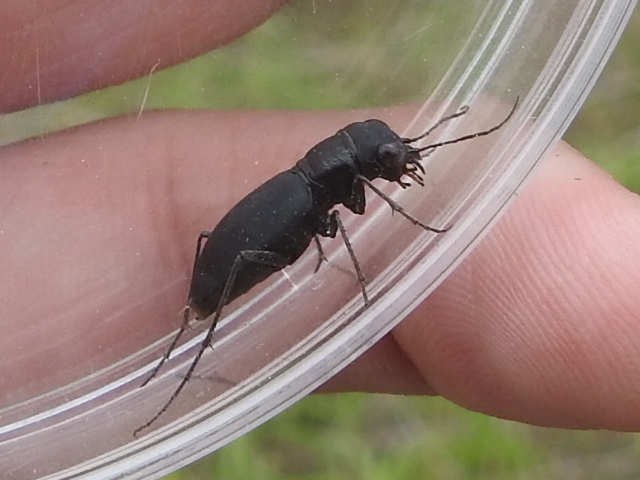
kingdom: Animalia
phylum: Arthropoda
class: Insecta
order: Coleoptera
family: Carabidae
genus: Dromochorus
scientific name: Dromochorus belfragei
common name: Loamy-ground dromo tiger beetle
